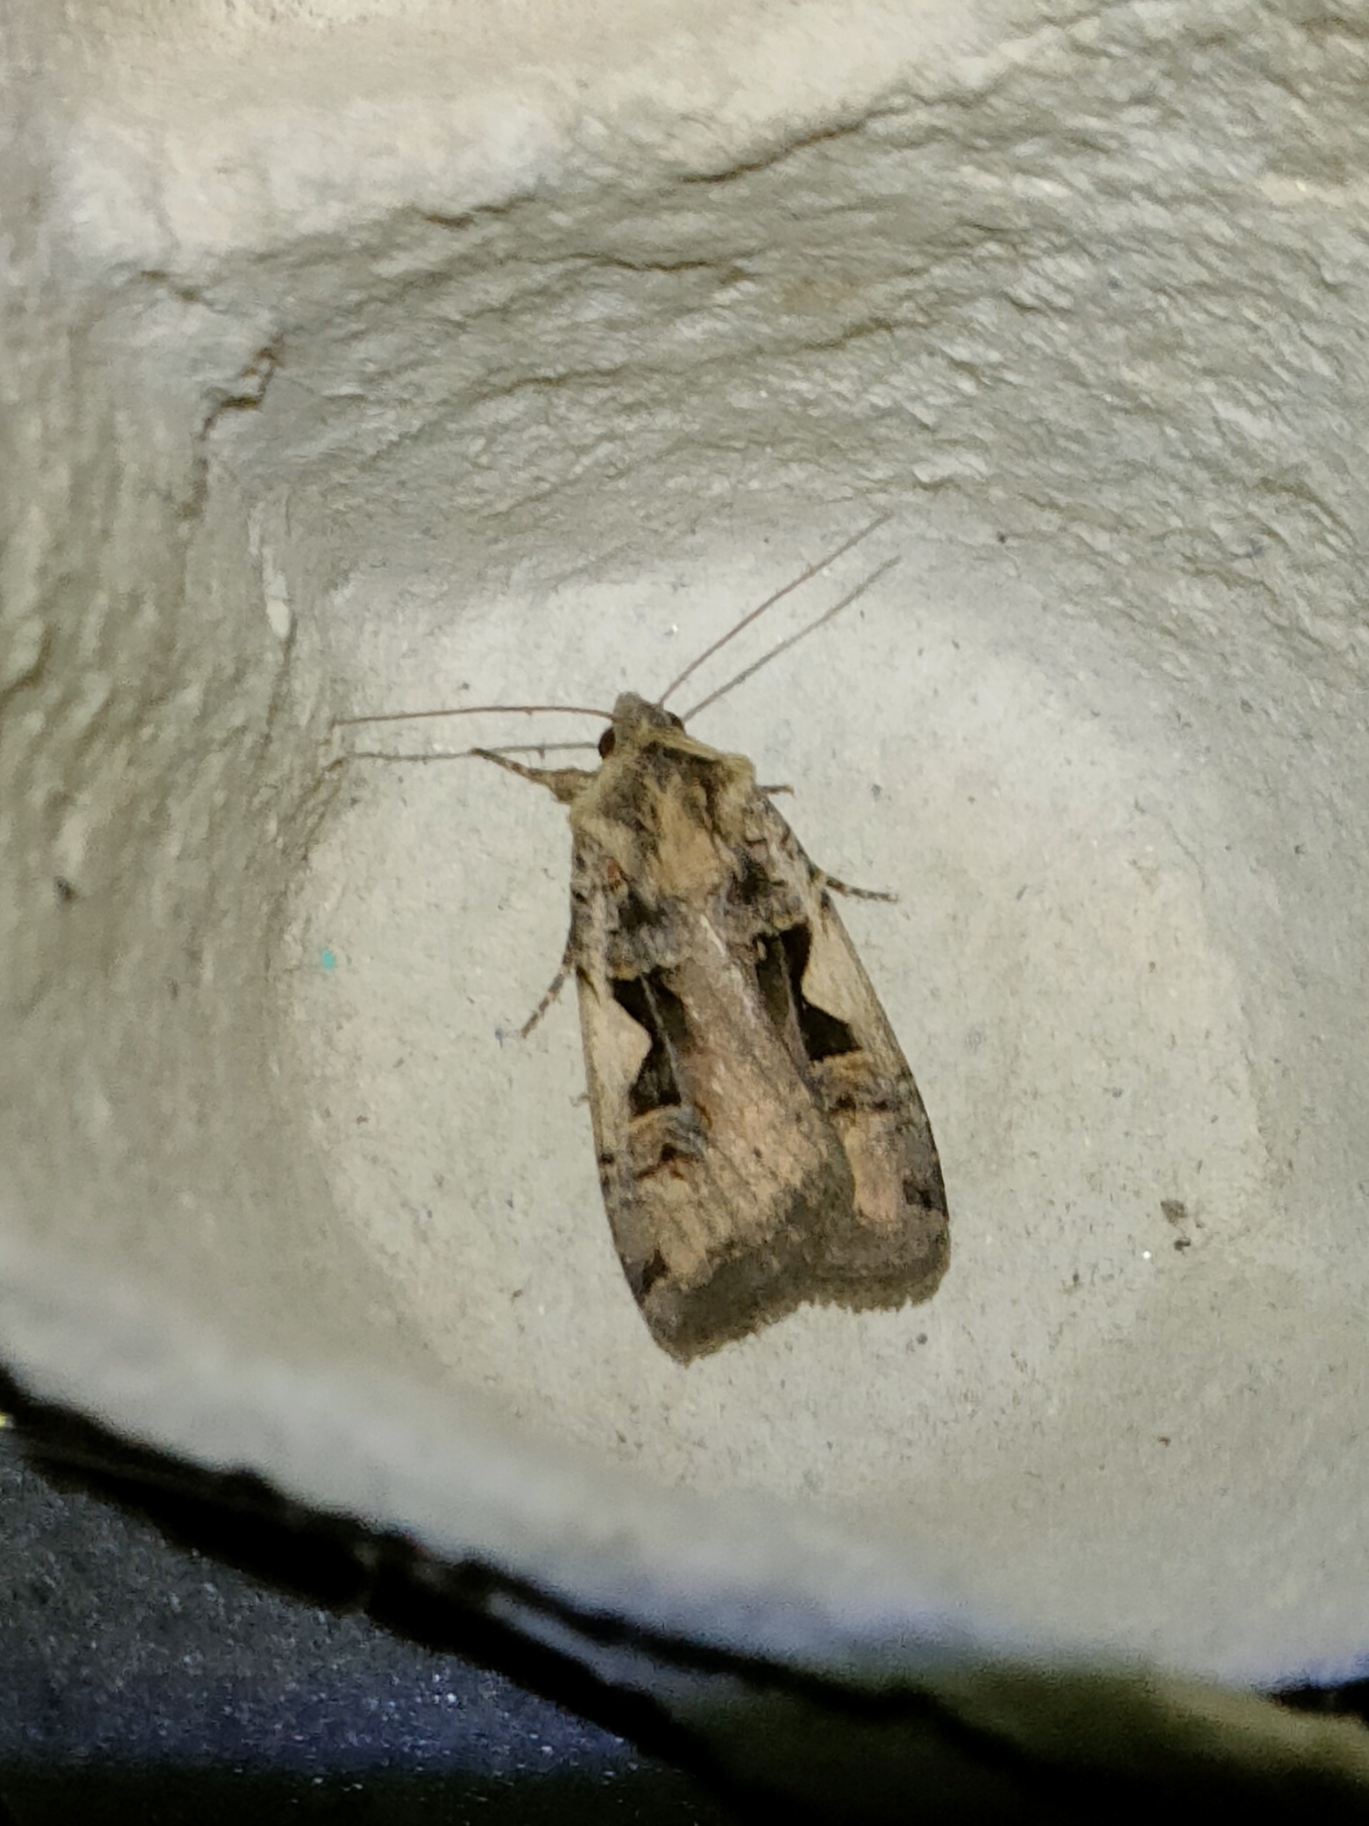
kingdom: Animalia
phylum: Arthropoda
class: Insecta
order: Lepidoptera
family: Noctuidae
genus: Xestia
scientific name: Xestia c-nigrum
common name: Setaceous hebrew character
